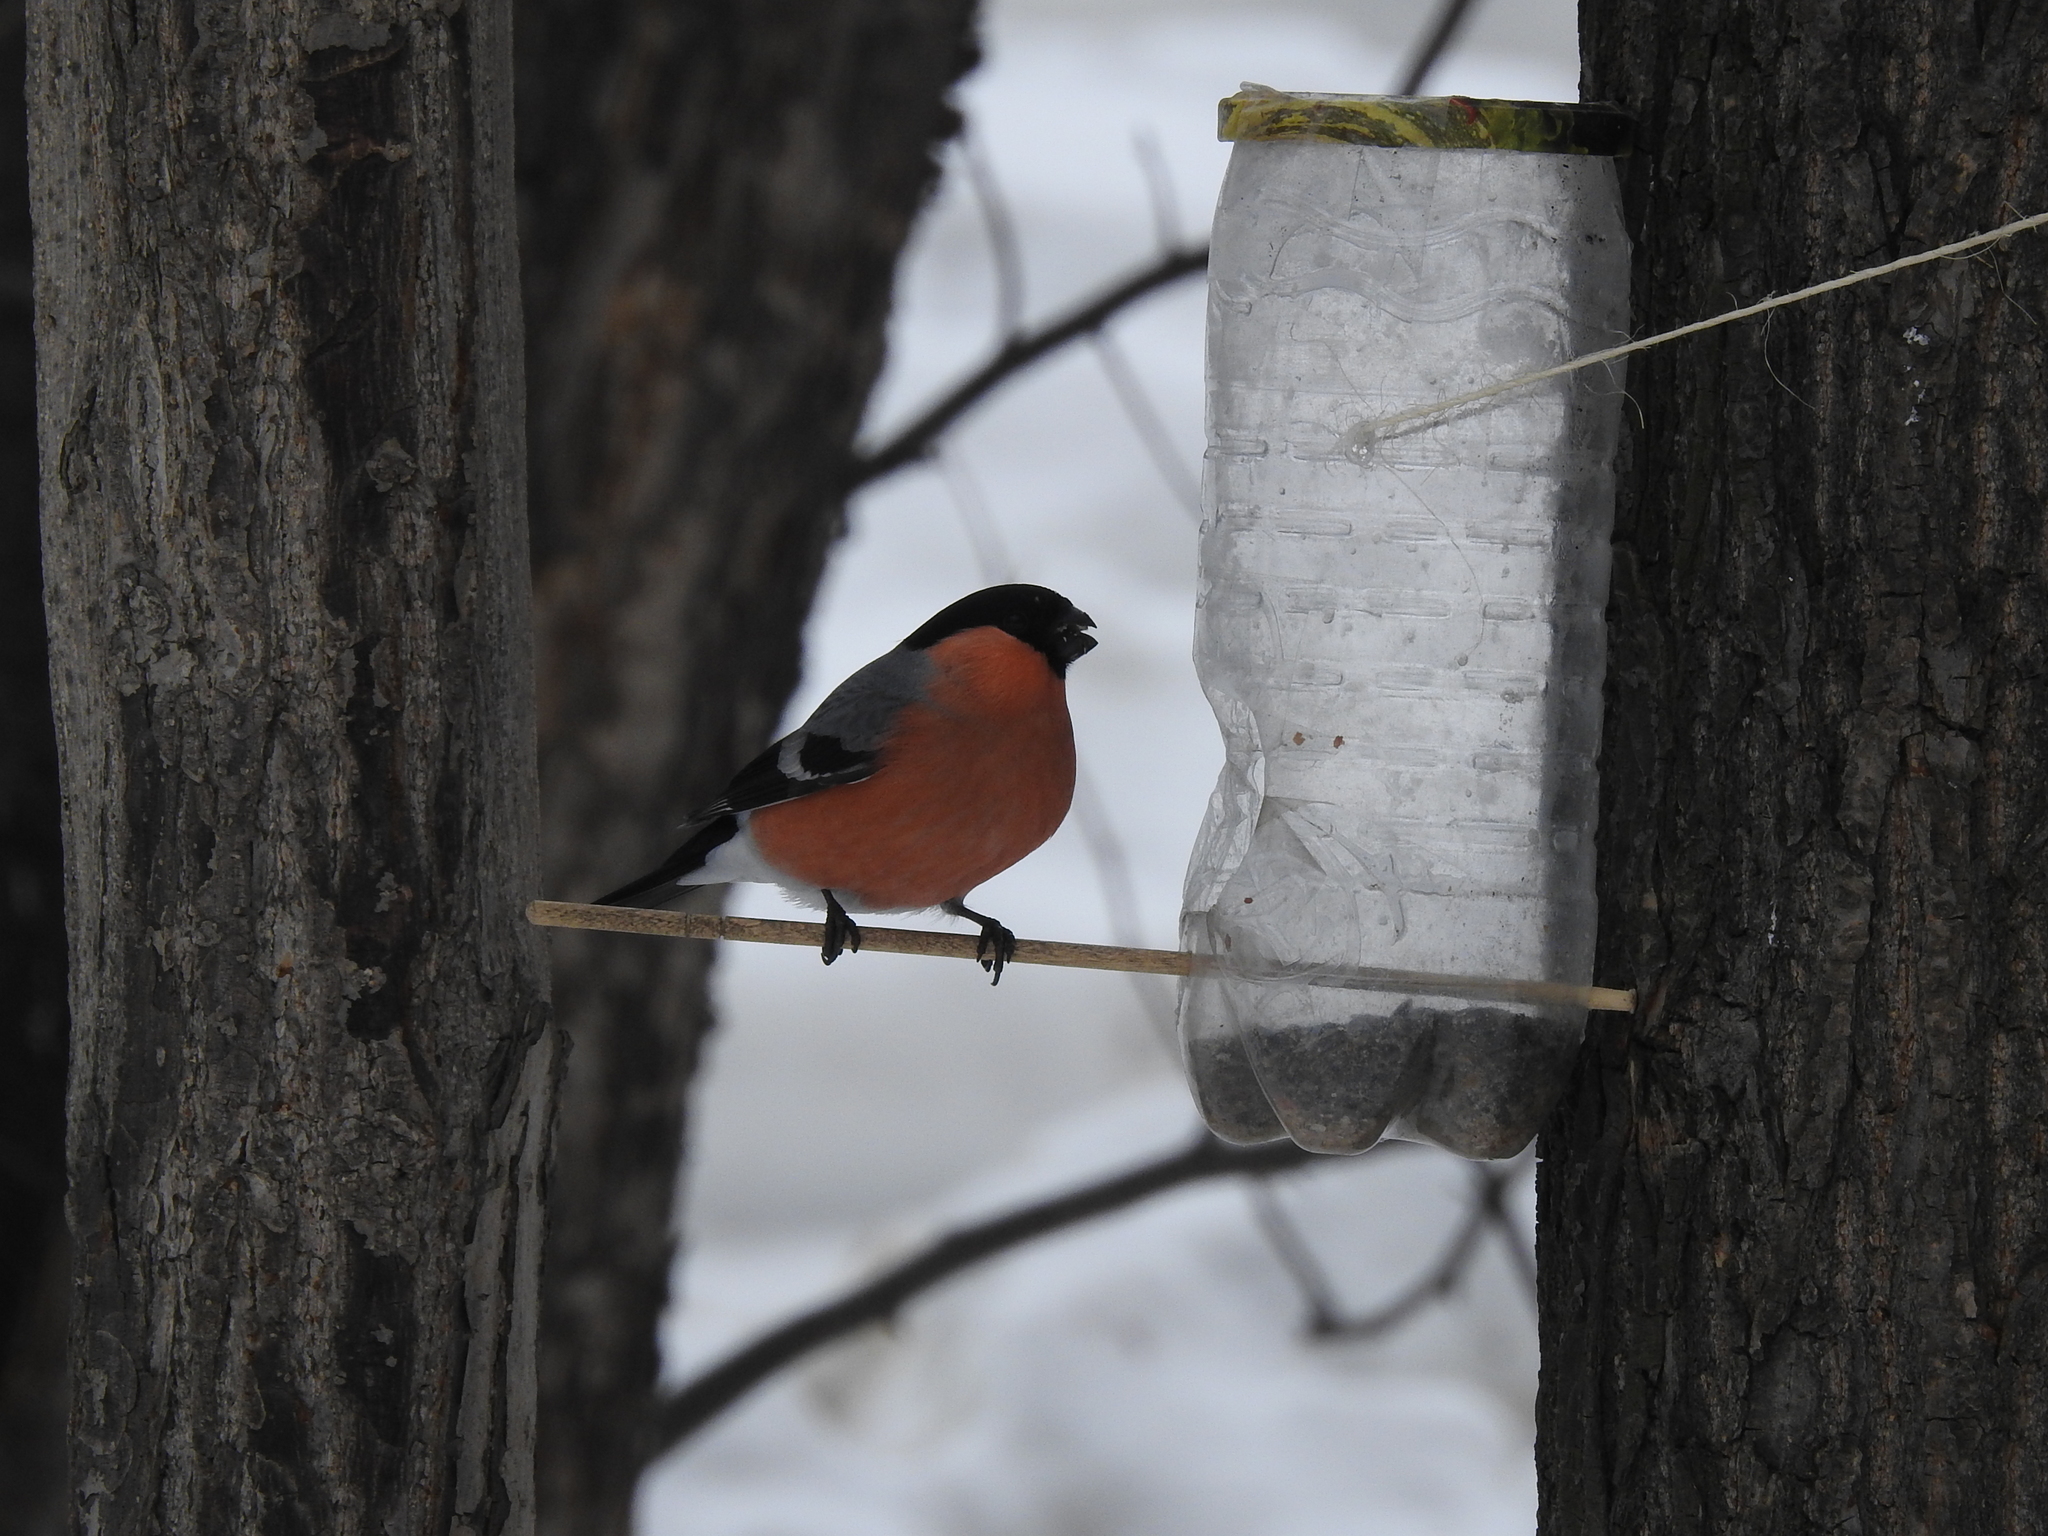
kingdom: Animalia
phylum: Chordata
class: Aves
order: Passeriformes
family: Fringillidae
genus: Pyrrhula
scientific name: Pyrrhula pyrrhula
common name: Eurasian bullfinch
